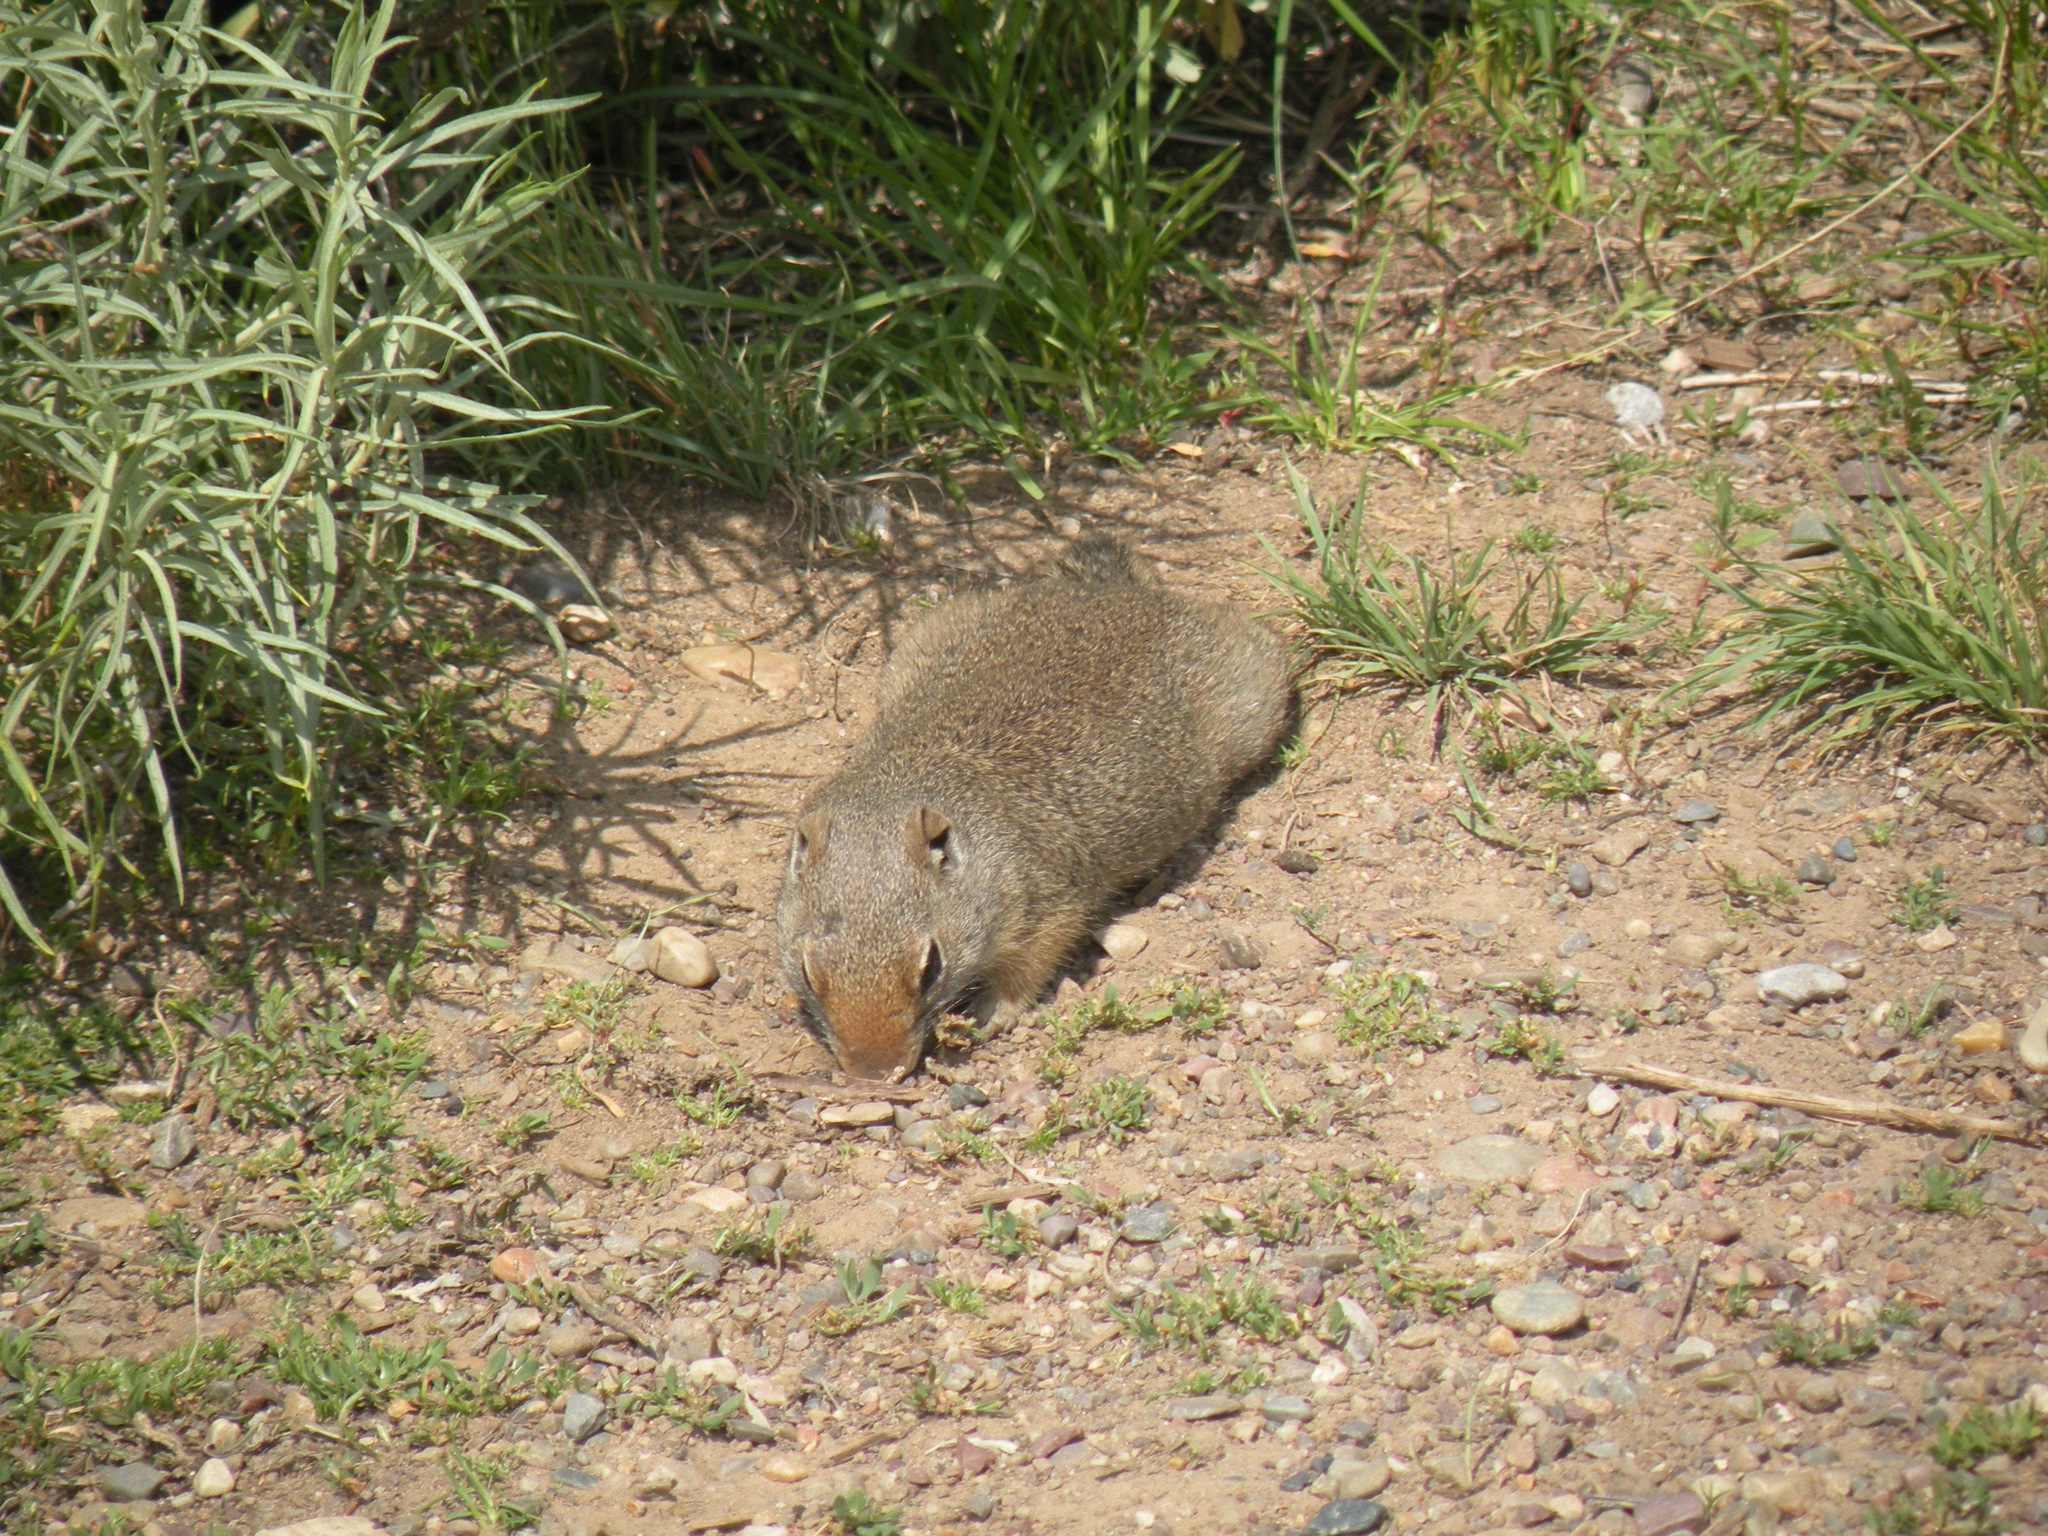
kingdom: Animalia
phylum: Chordata
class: Mammalia
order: Rodentia
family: Sciuridae
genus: Urocitellus
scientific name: Urocitellus armatus
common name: Uinta ground squirrel
